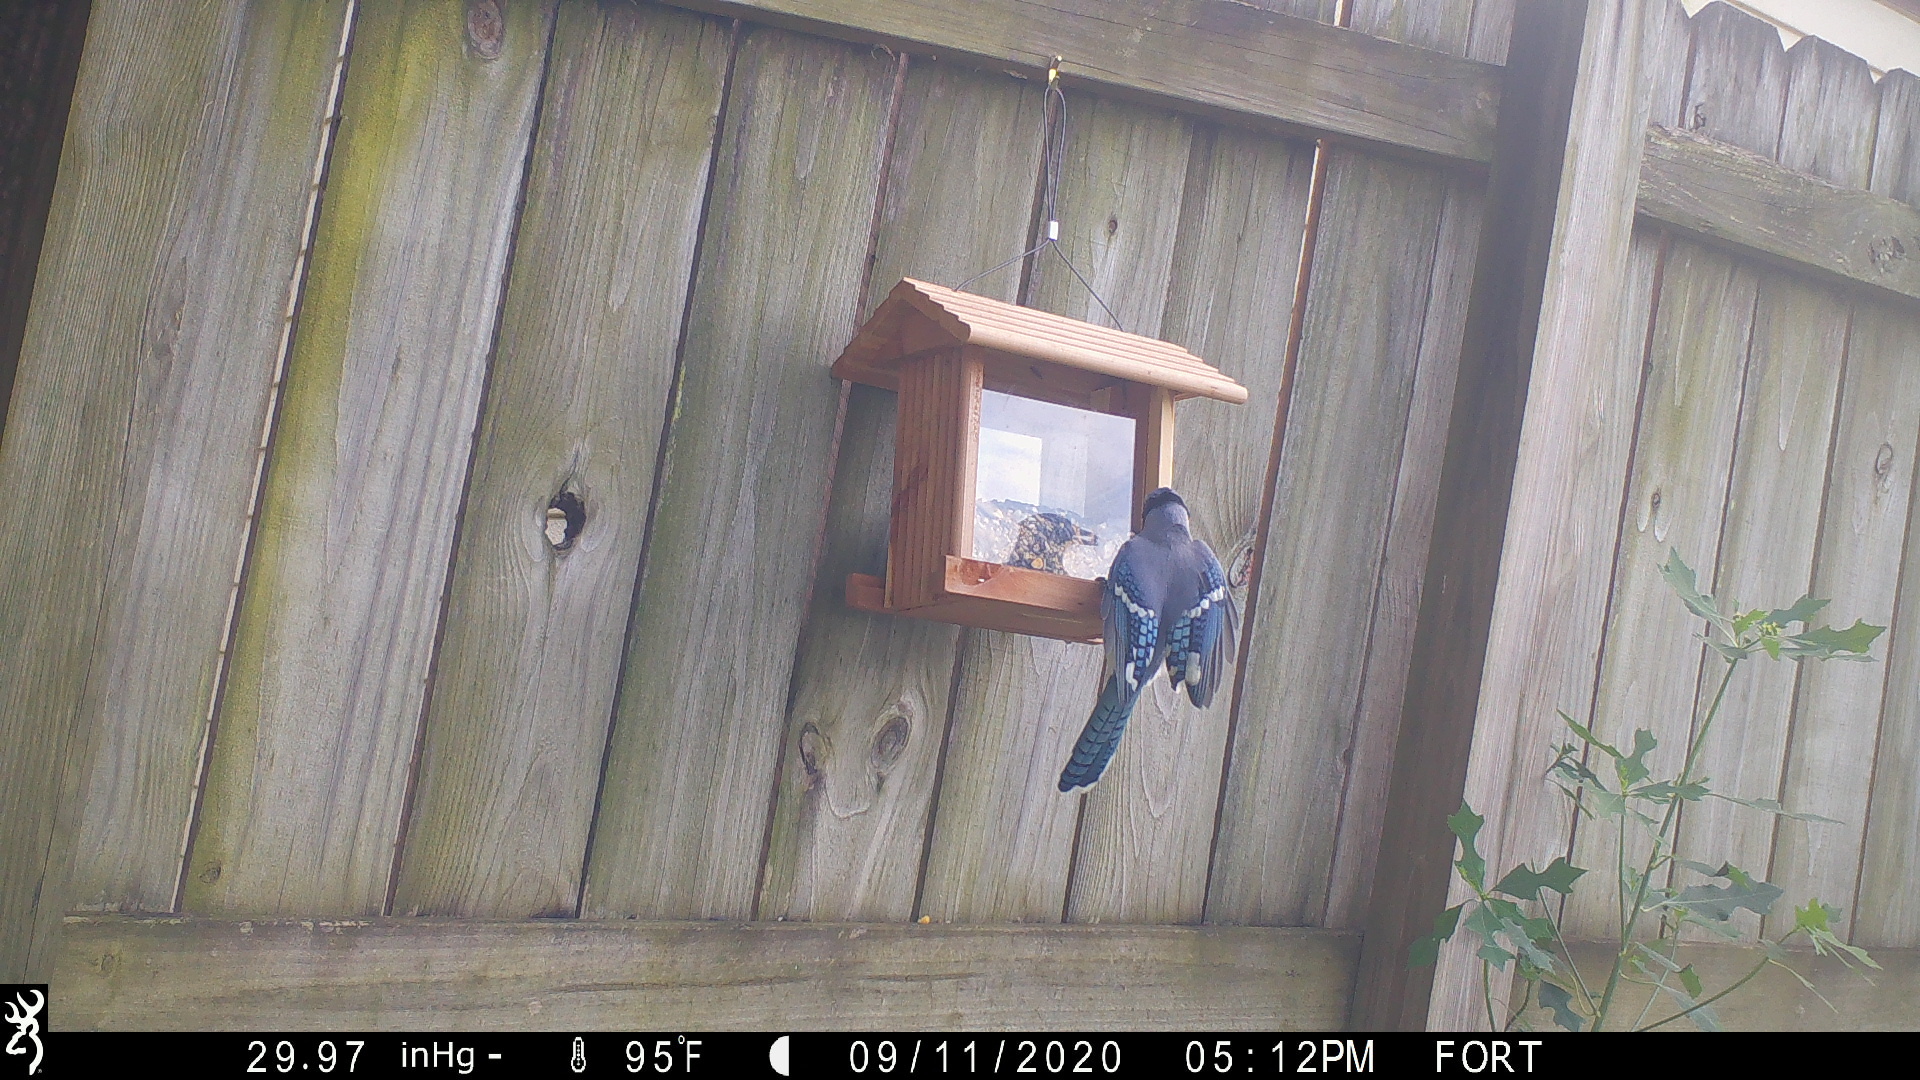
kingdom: Animalia
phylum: Chordata
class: Aves
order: Passeriformes
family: Corvidae
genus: Cyanocitta
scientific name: Cyanocitta cristata
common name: Blue jay
